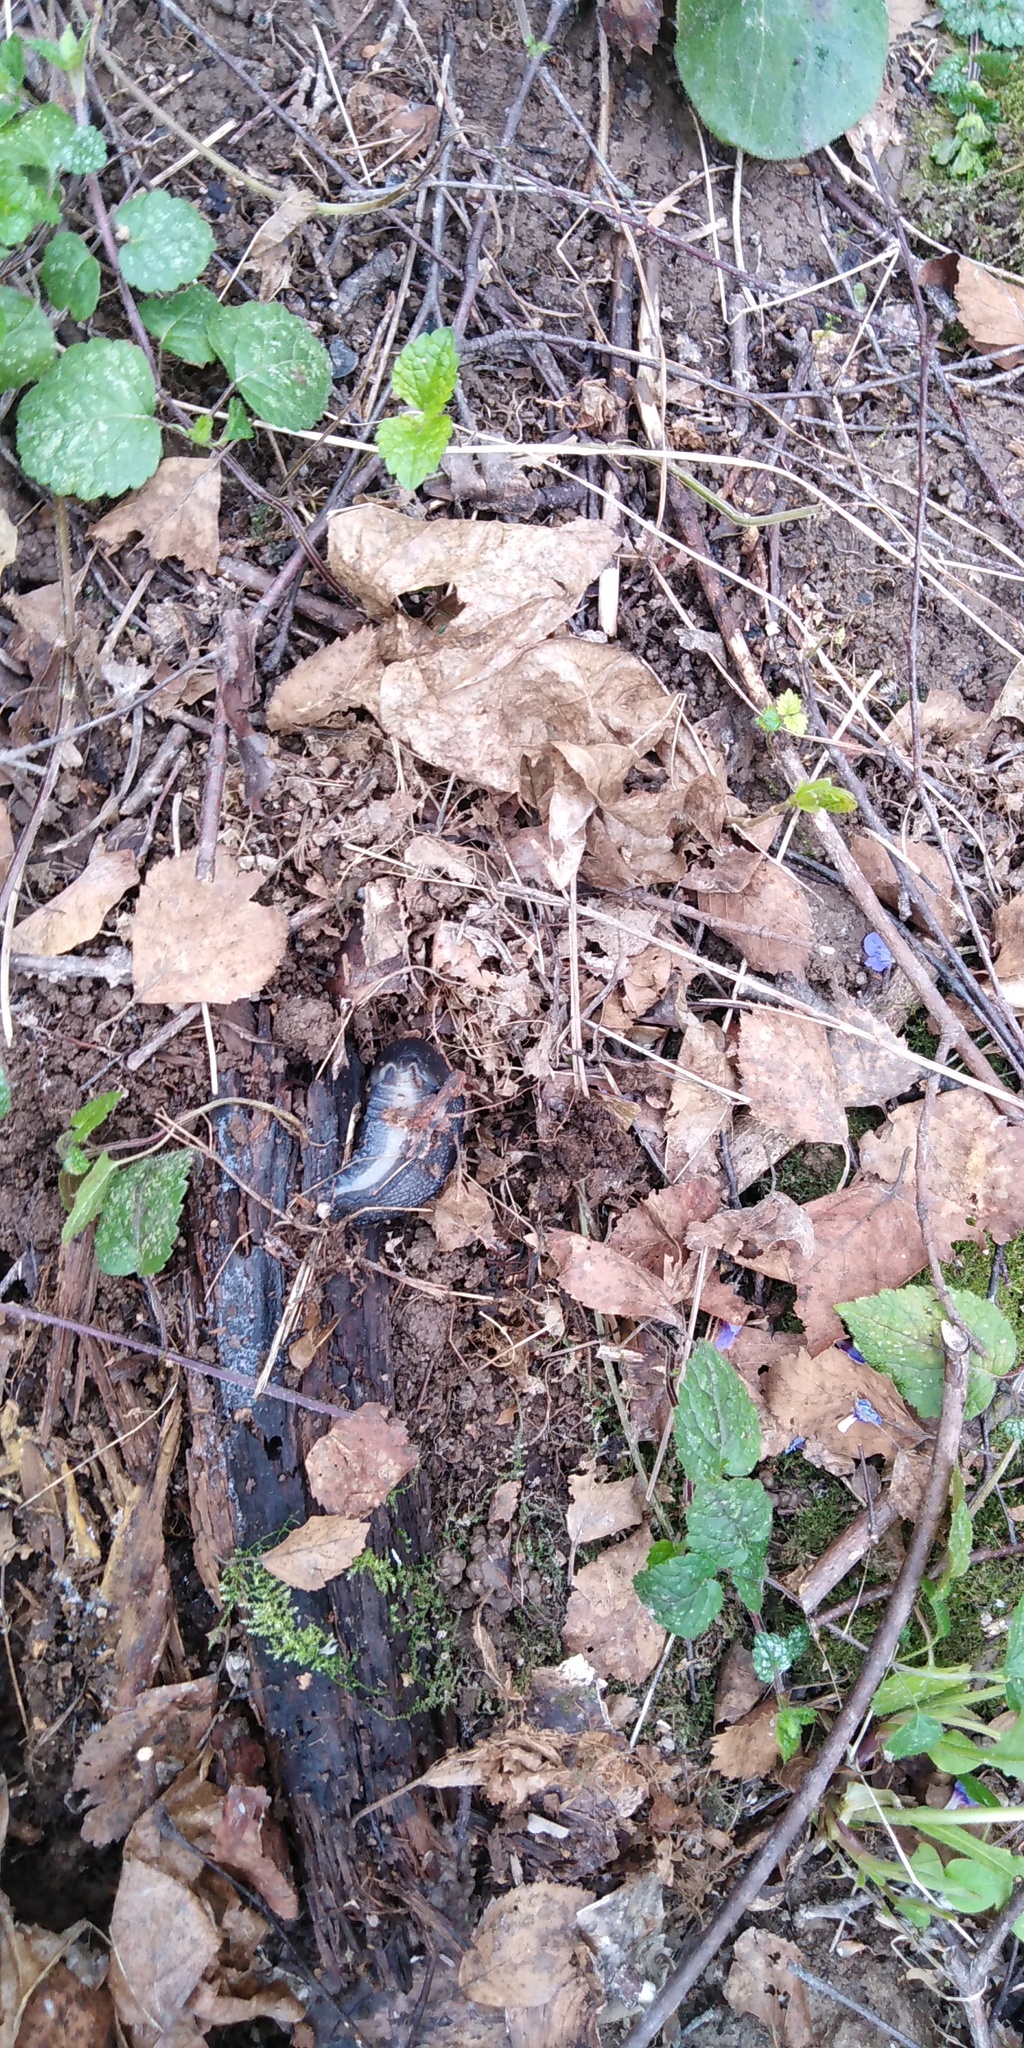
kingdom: Animalia
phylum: Mollusca
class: Gastropoda
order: Stylommatophora
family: Limacidae
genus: Limax
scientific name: Limax cinereoniger
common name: Ash-black slug
